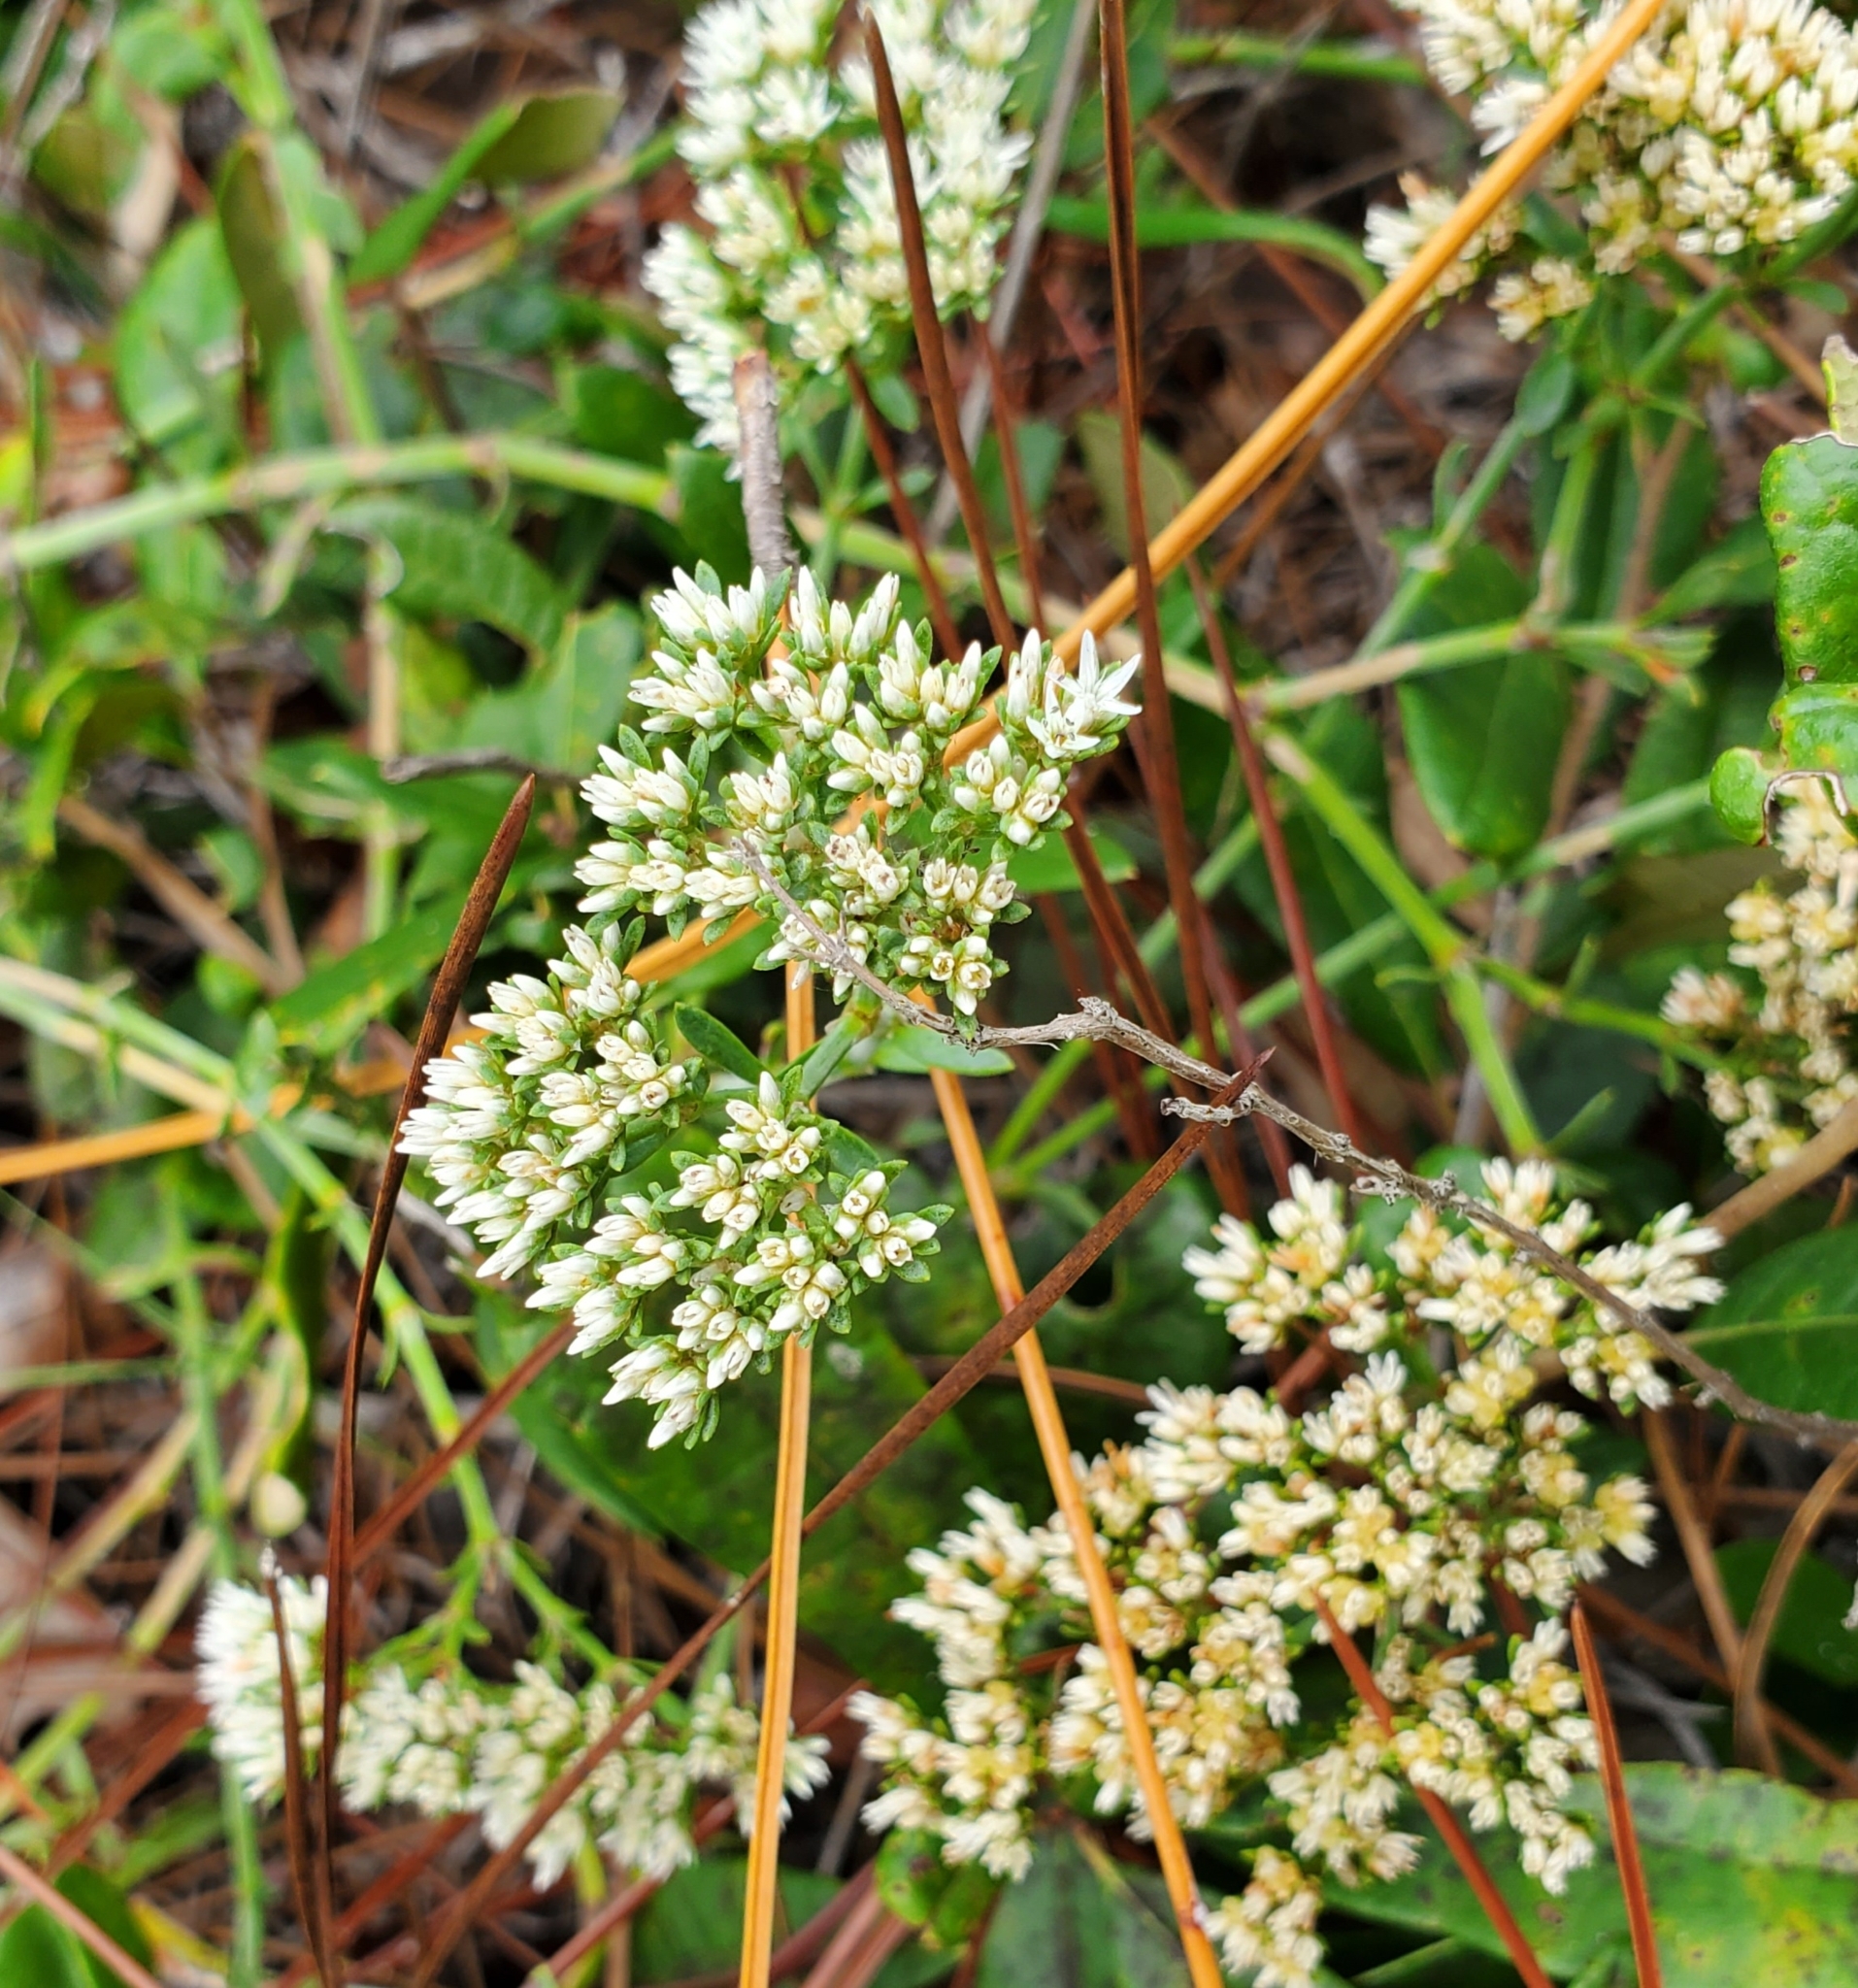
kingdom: Plantae
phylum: Tracheophyta
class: Magnoliopsida
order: Caryophyllales
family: Caryophyllaceae
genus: Paronychia
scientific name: Paronychia erecta
